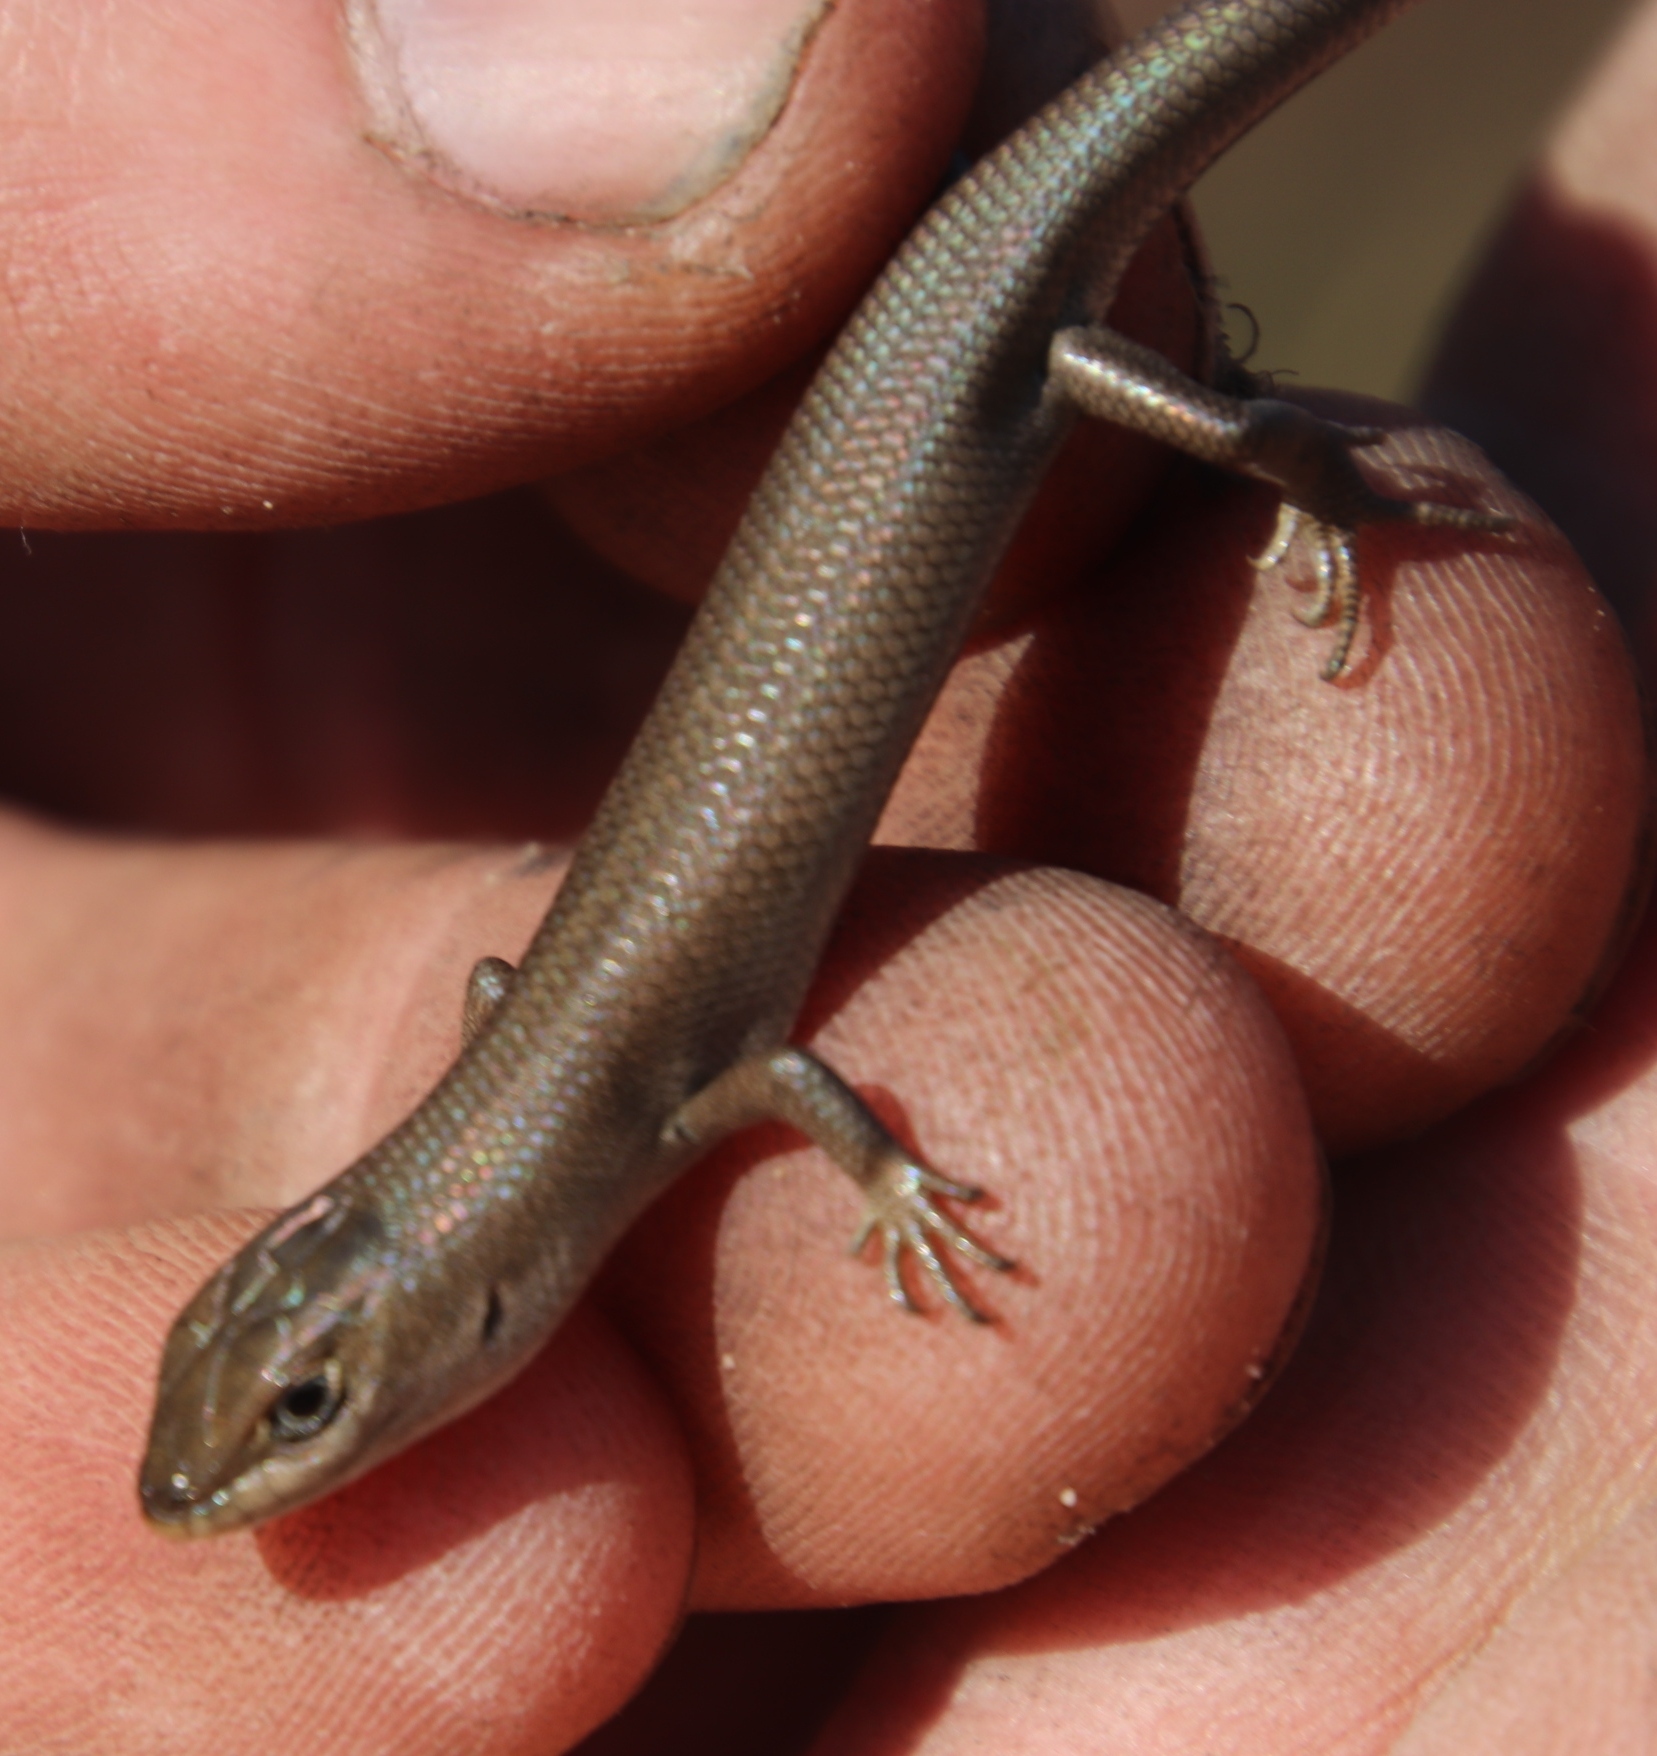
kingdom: Animalia
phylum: Chordata
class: Squamata
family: Scincidae
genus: Trachylepis
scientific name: Trachylepis capensis
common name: Cape skink
